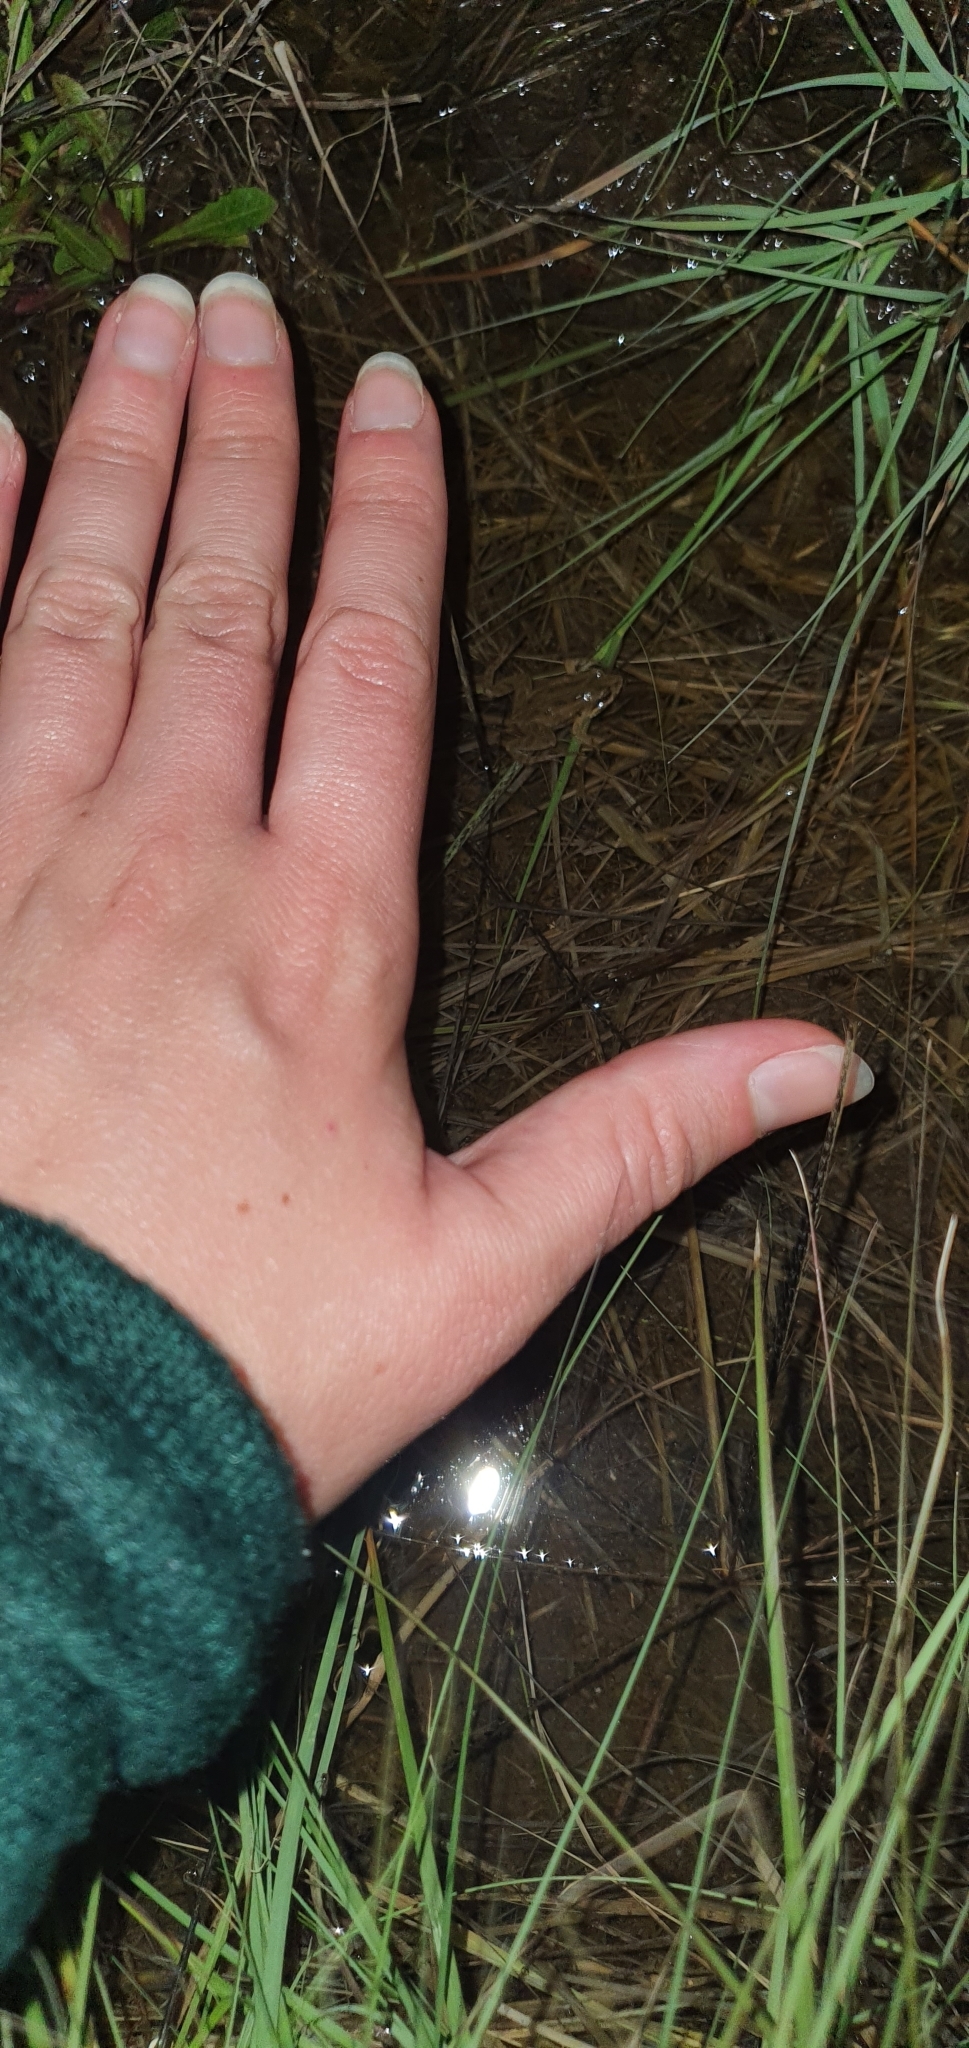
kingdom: Animalia
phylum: Chordata
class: Amphibia
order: Anura
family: Myobatrachidae
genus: Crinia
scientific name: Crinia signifera
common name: Brown froglet
